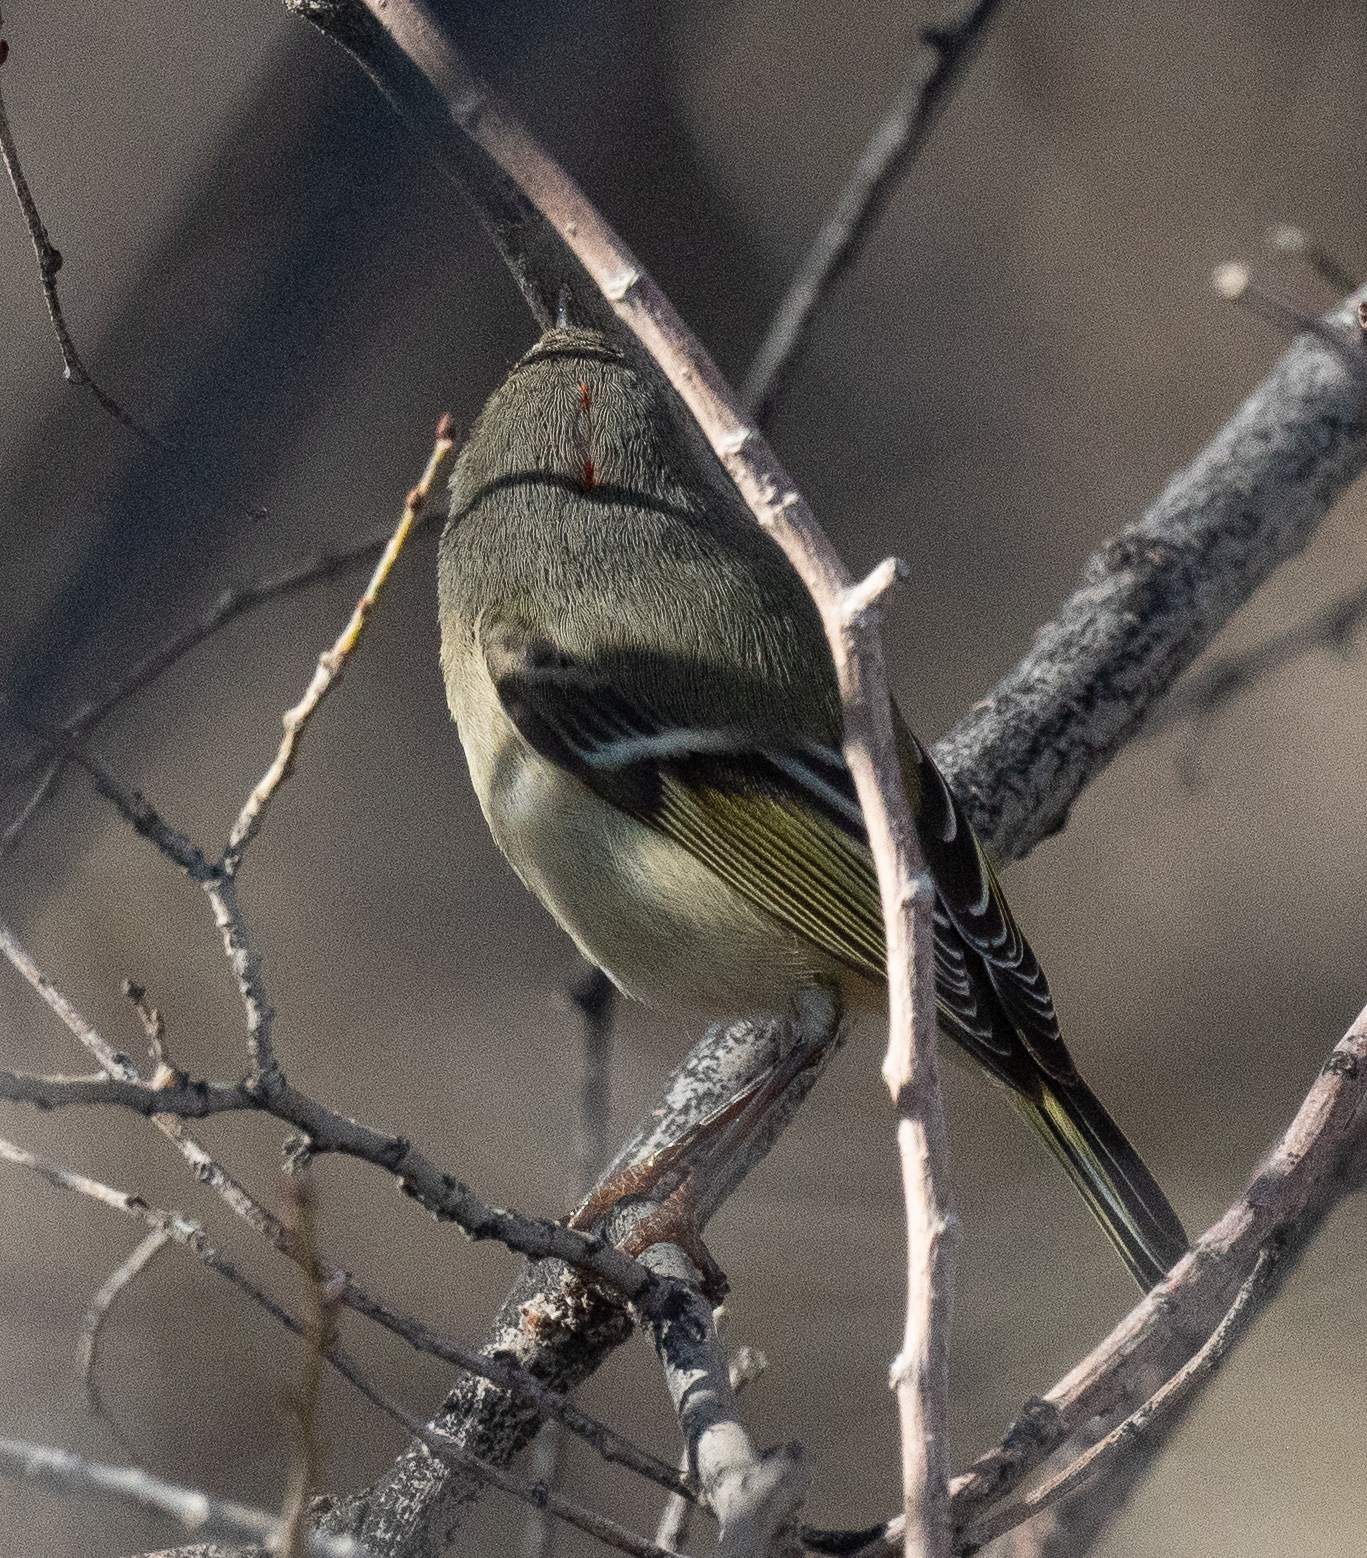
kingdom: Animalia
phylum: Chordata
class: Aves
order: Passeriformes
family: Regulidae
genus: Regulus
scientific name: Regulus calendula
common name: Ruby-crowned kinglet
